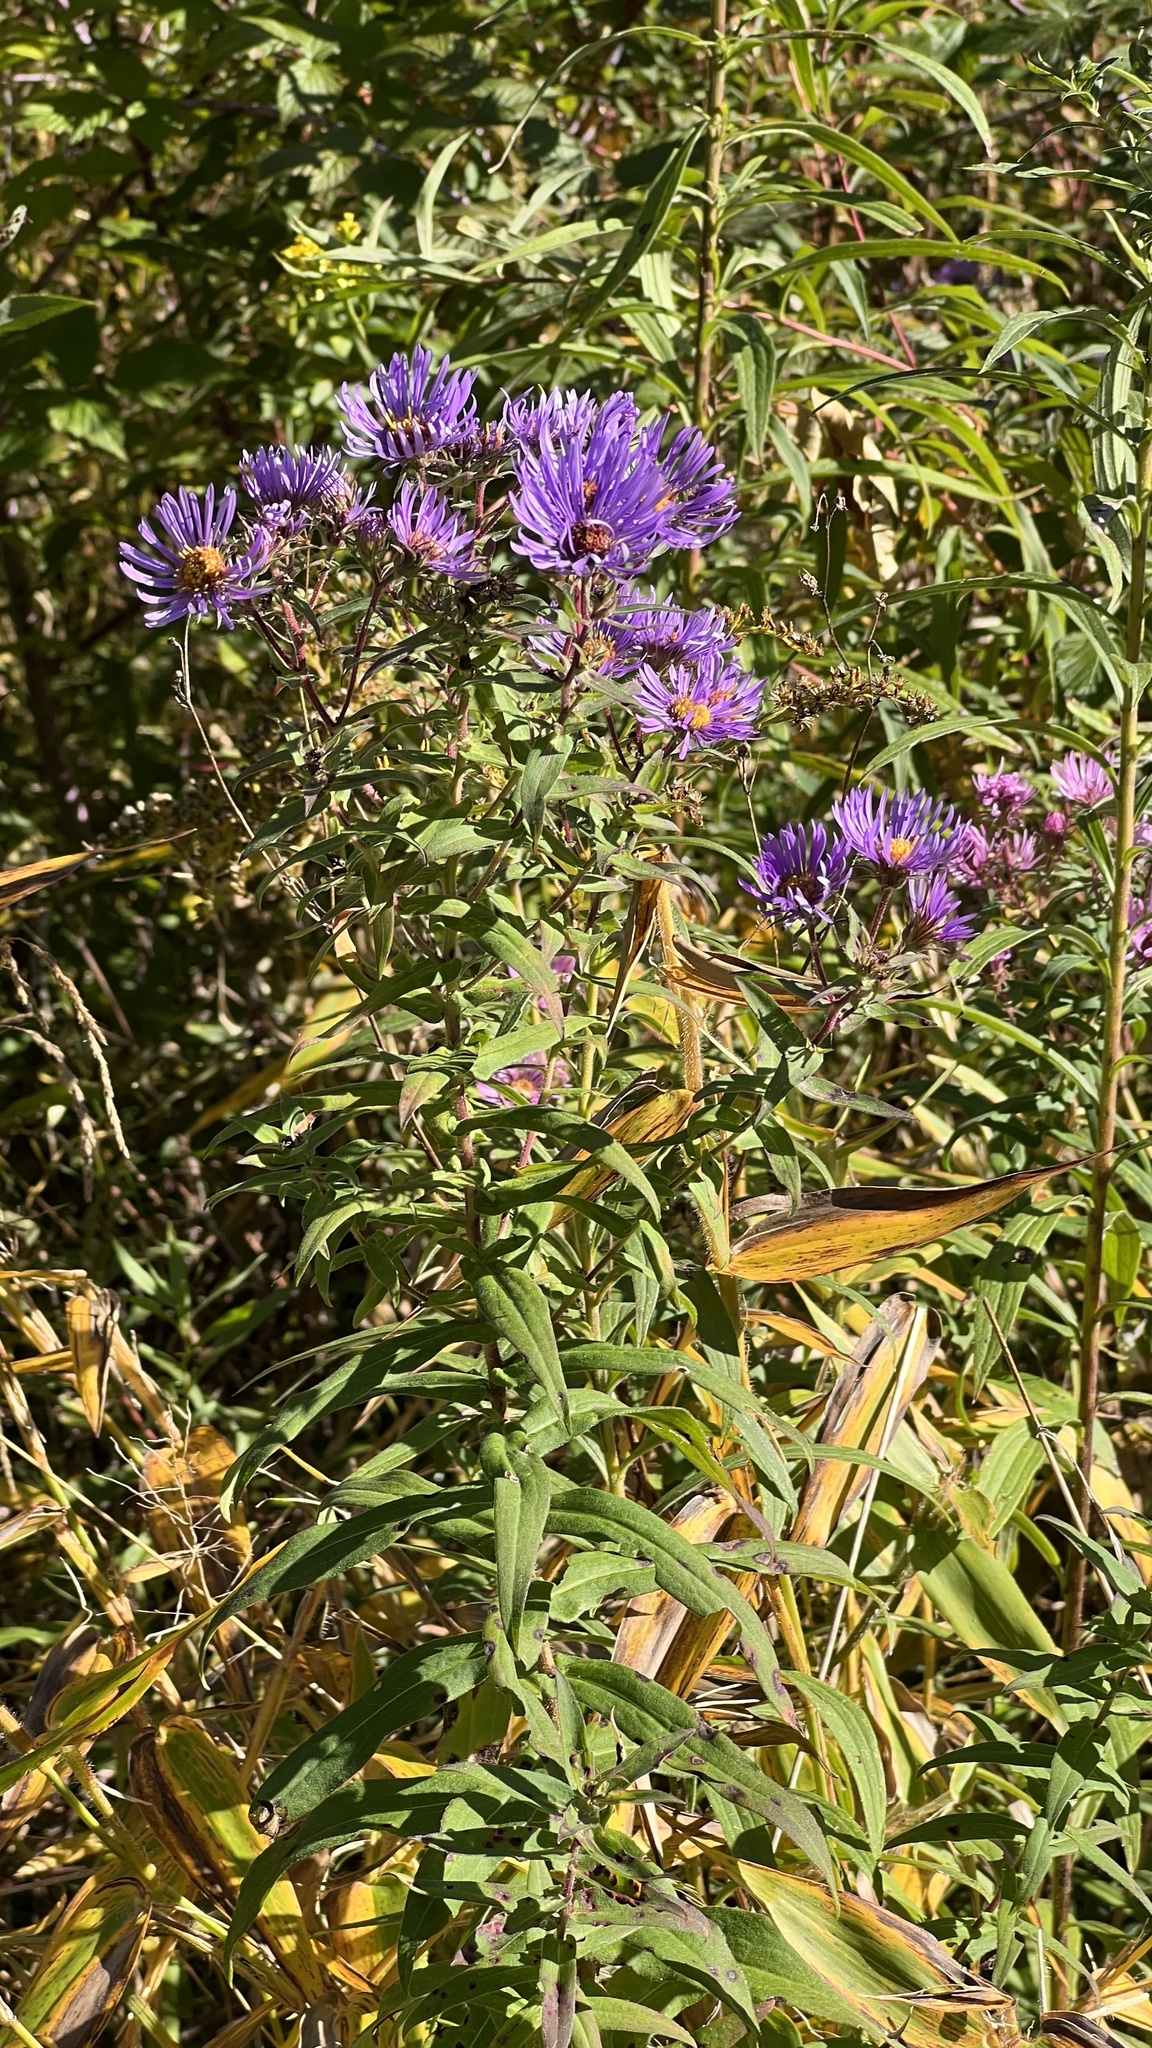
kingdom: Plantae
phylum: Tracheophyta
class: Magnoliopsida
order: Asterales
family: Asteraceae
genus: Symphyotrichum
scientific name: Symphyotrichum novae-angliae
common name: Michaelmas daisy
